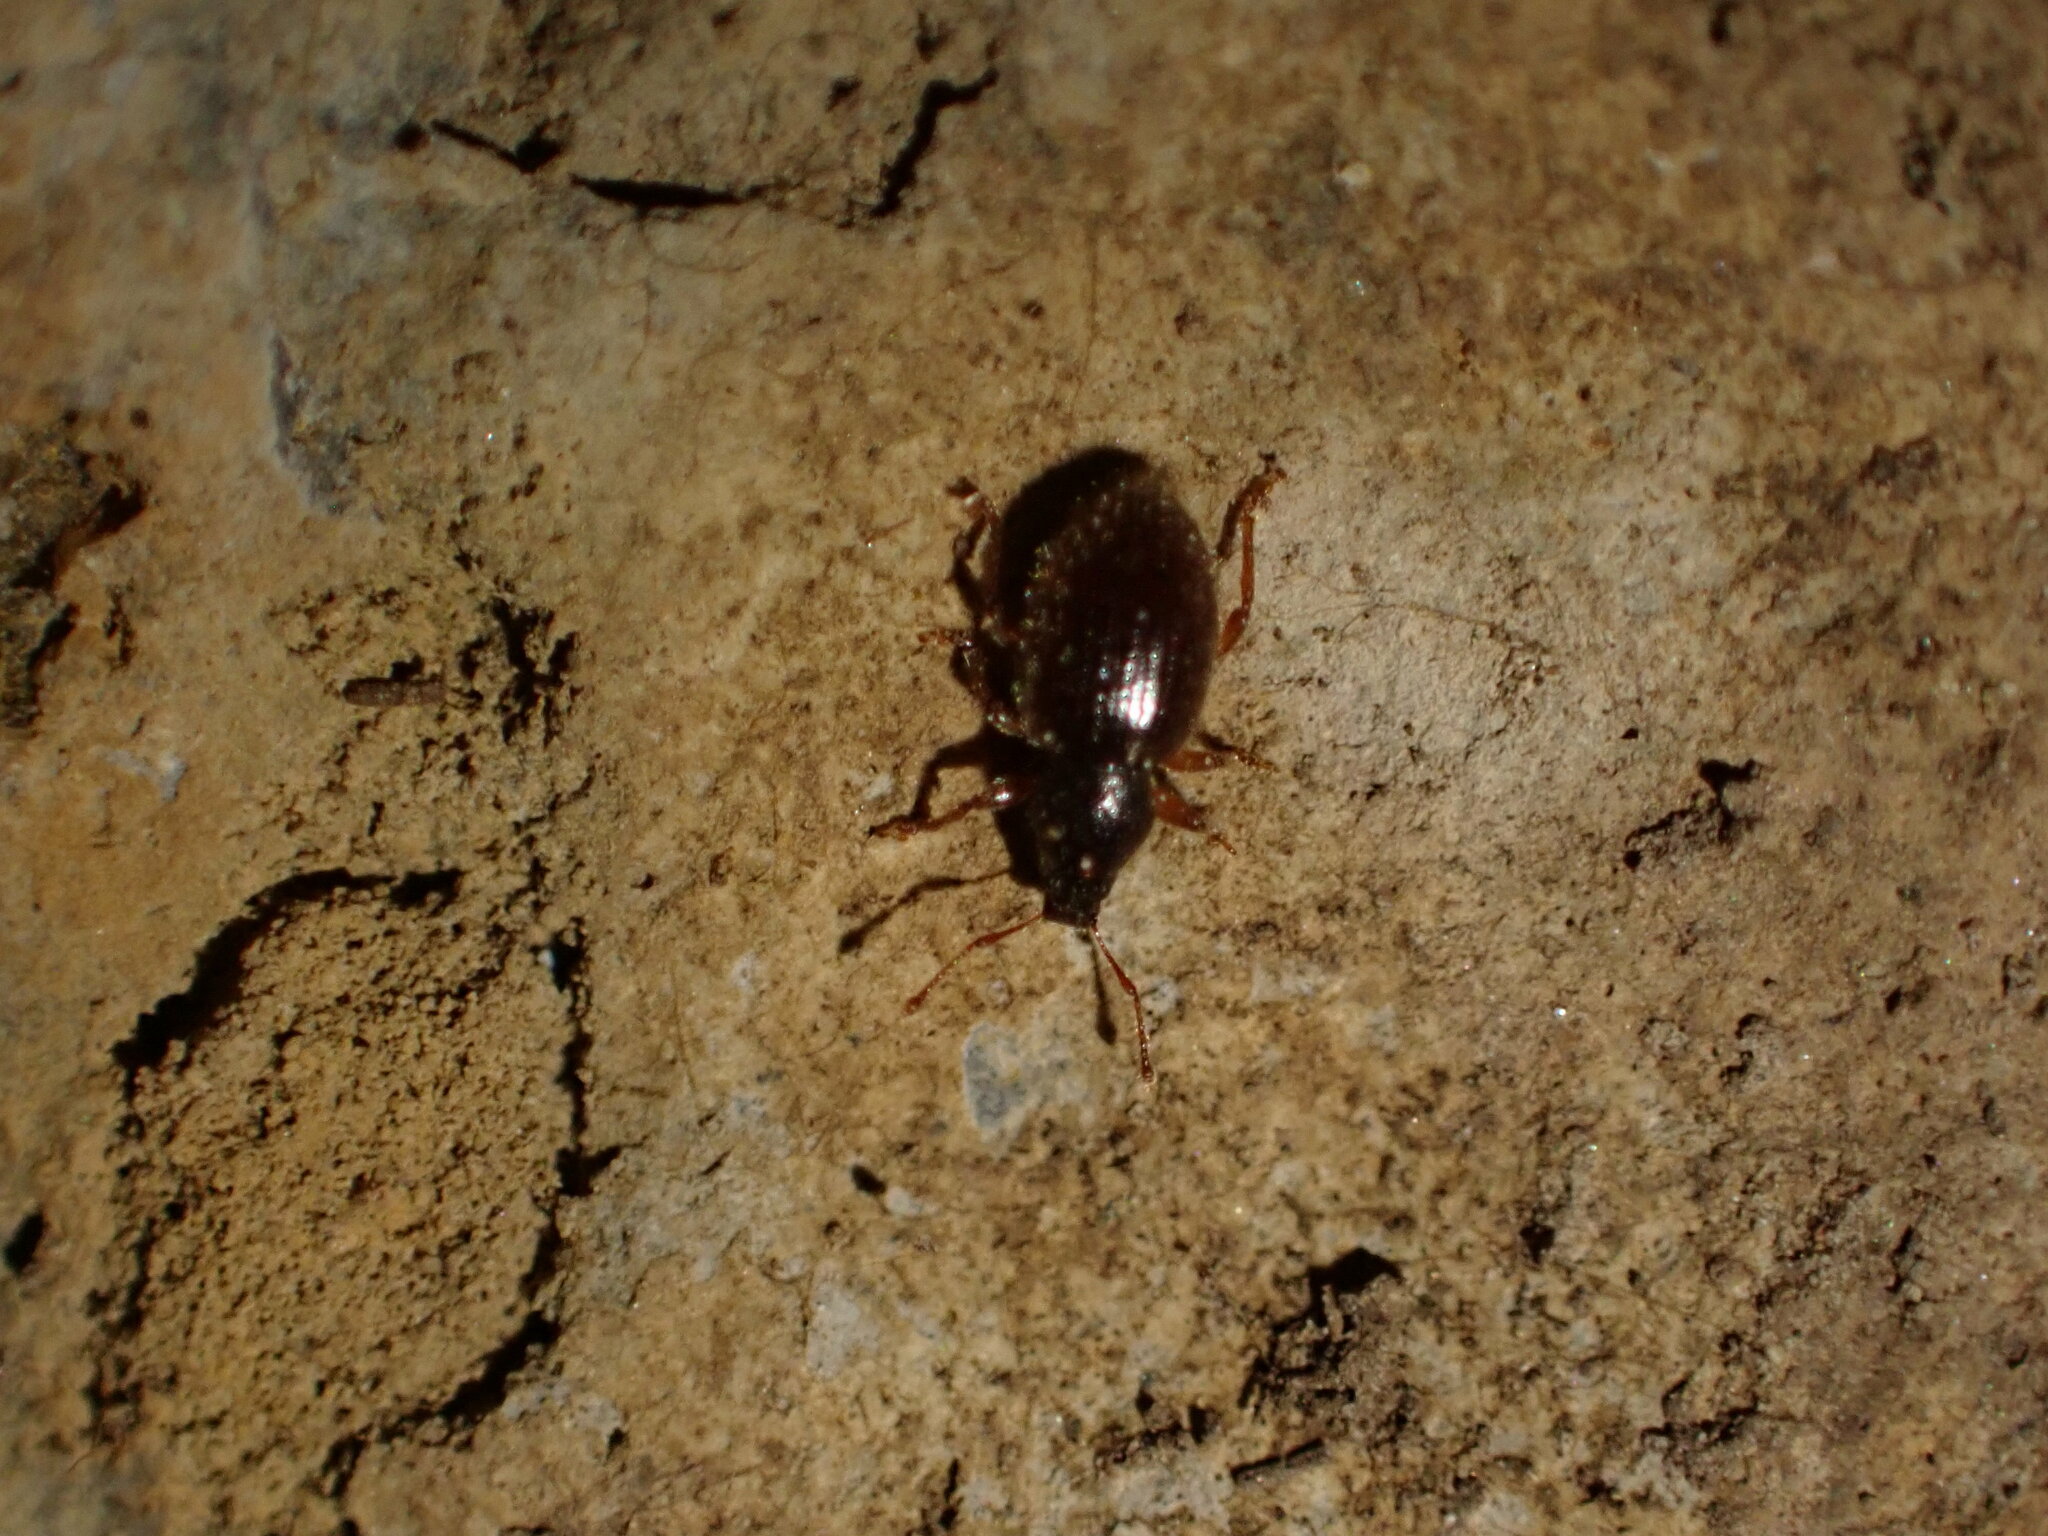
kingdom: Animalia
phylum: Arthropoda
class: Insecta
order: Coleoptera
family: Curculionidae
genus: Exomias
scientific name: Exomias pellucidus
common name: Hairy spider weevil
